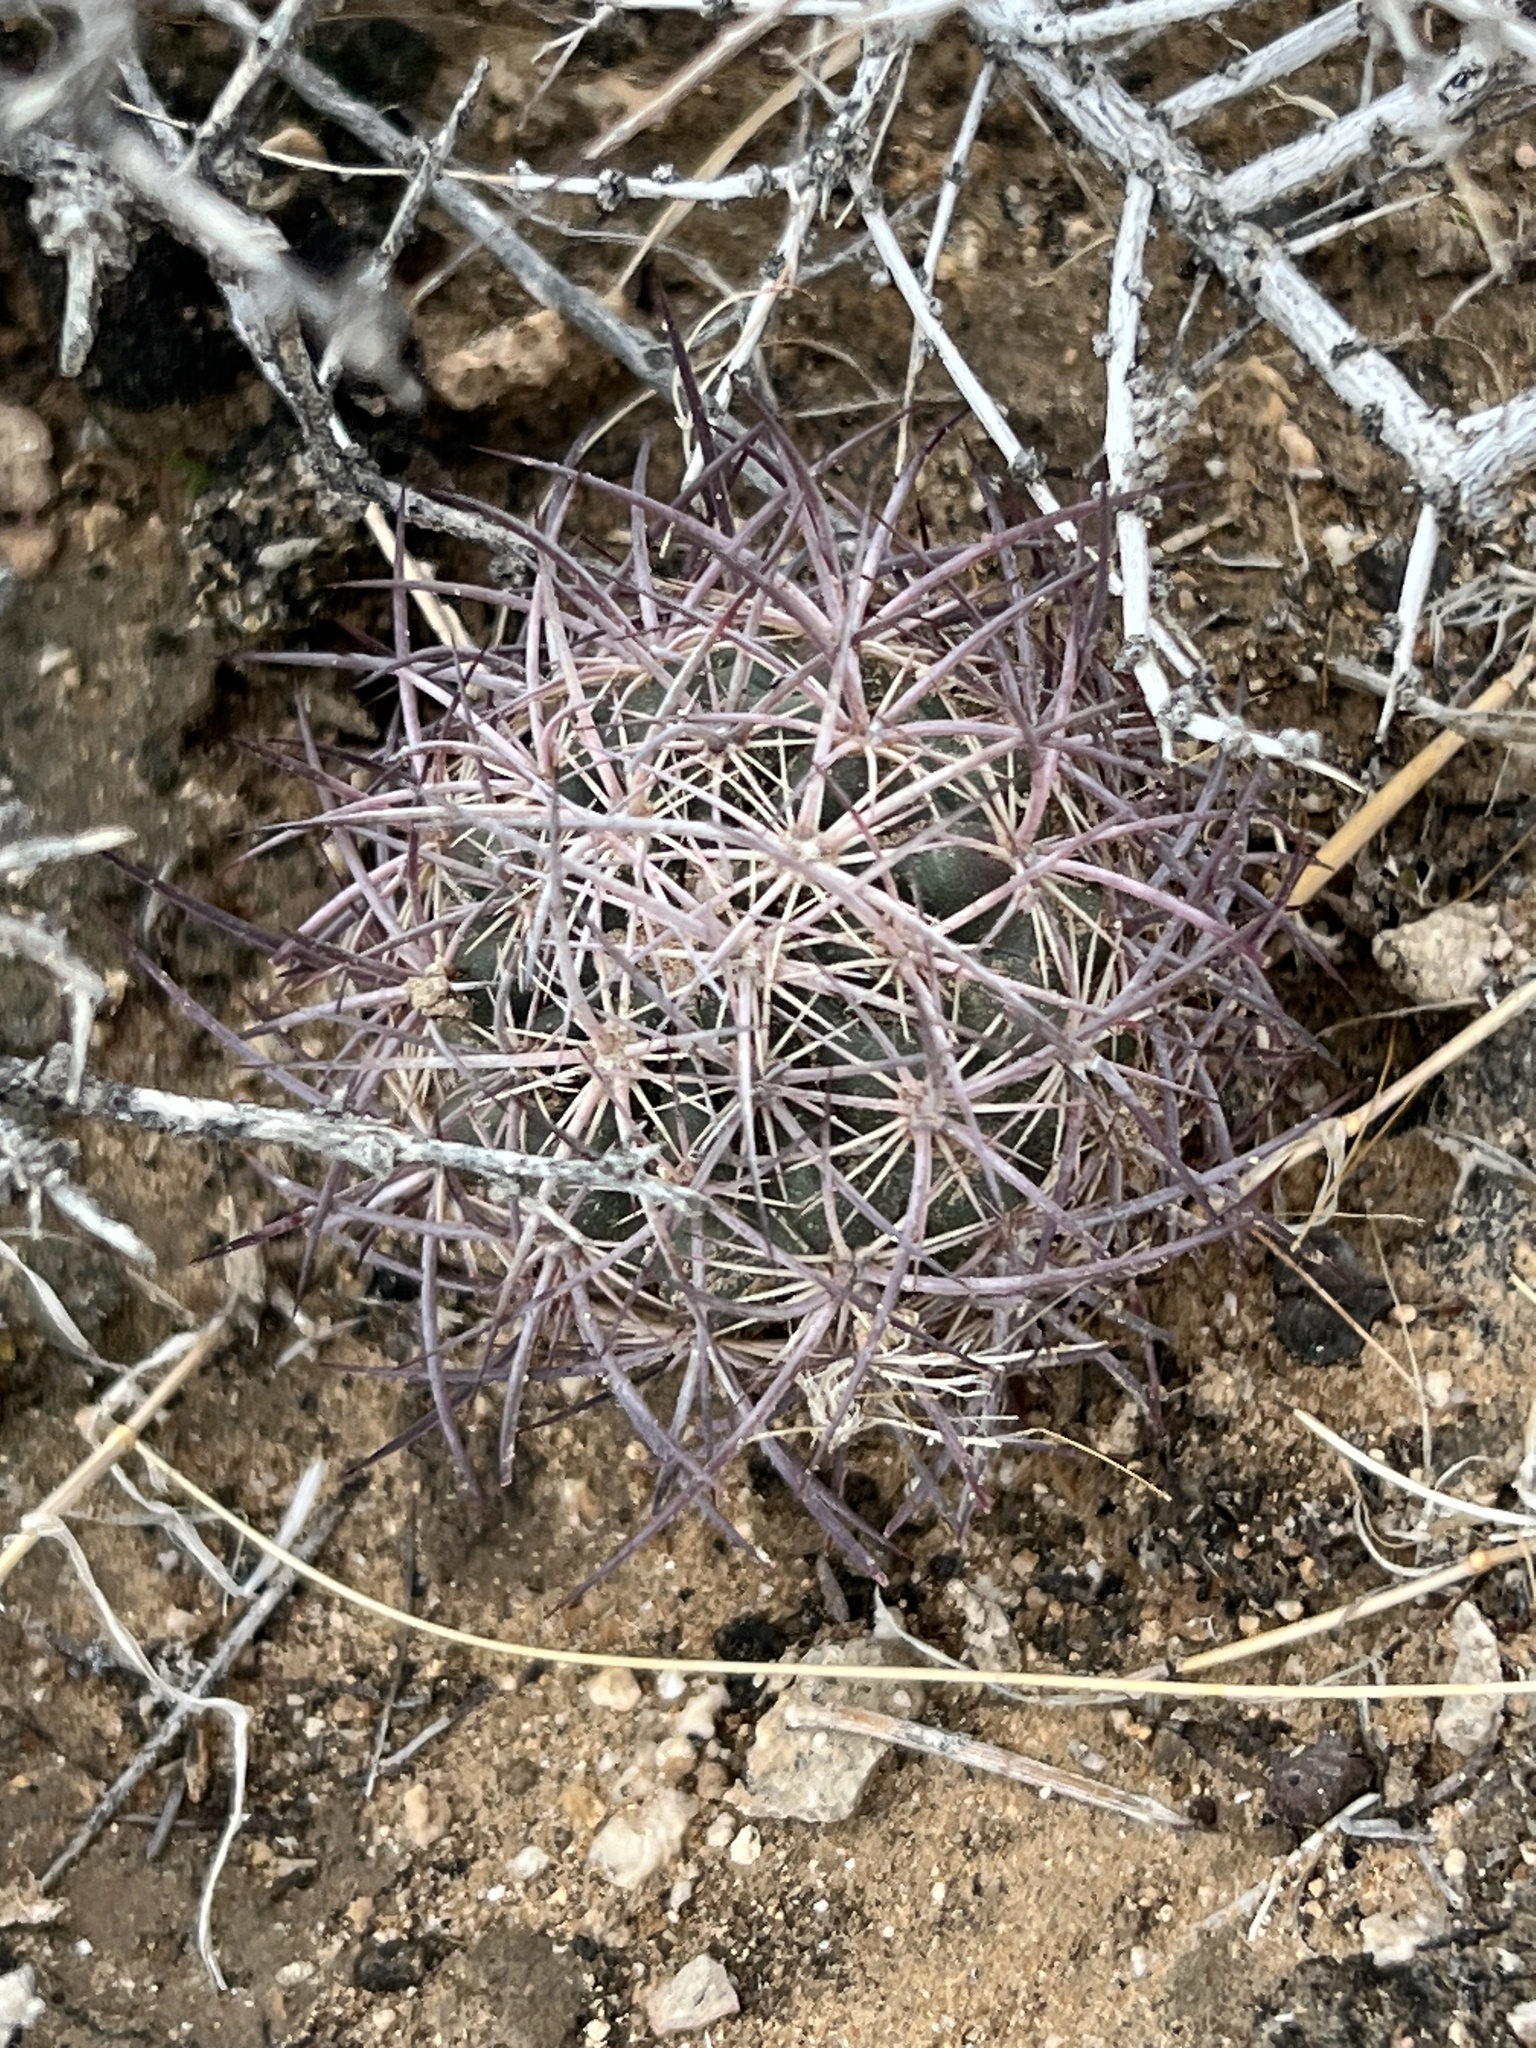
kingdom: Plantae
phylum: Tracheophyta
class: Magnoliopsida
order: Caryophyllales
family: Cactaceae
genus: Sclerocactus
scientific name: Sclerocactus johnsonii
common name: Eight-spine fishhook cactus
